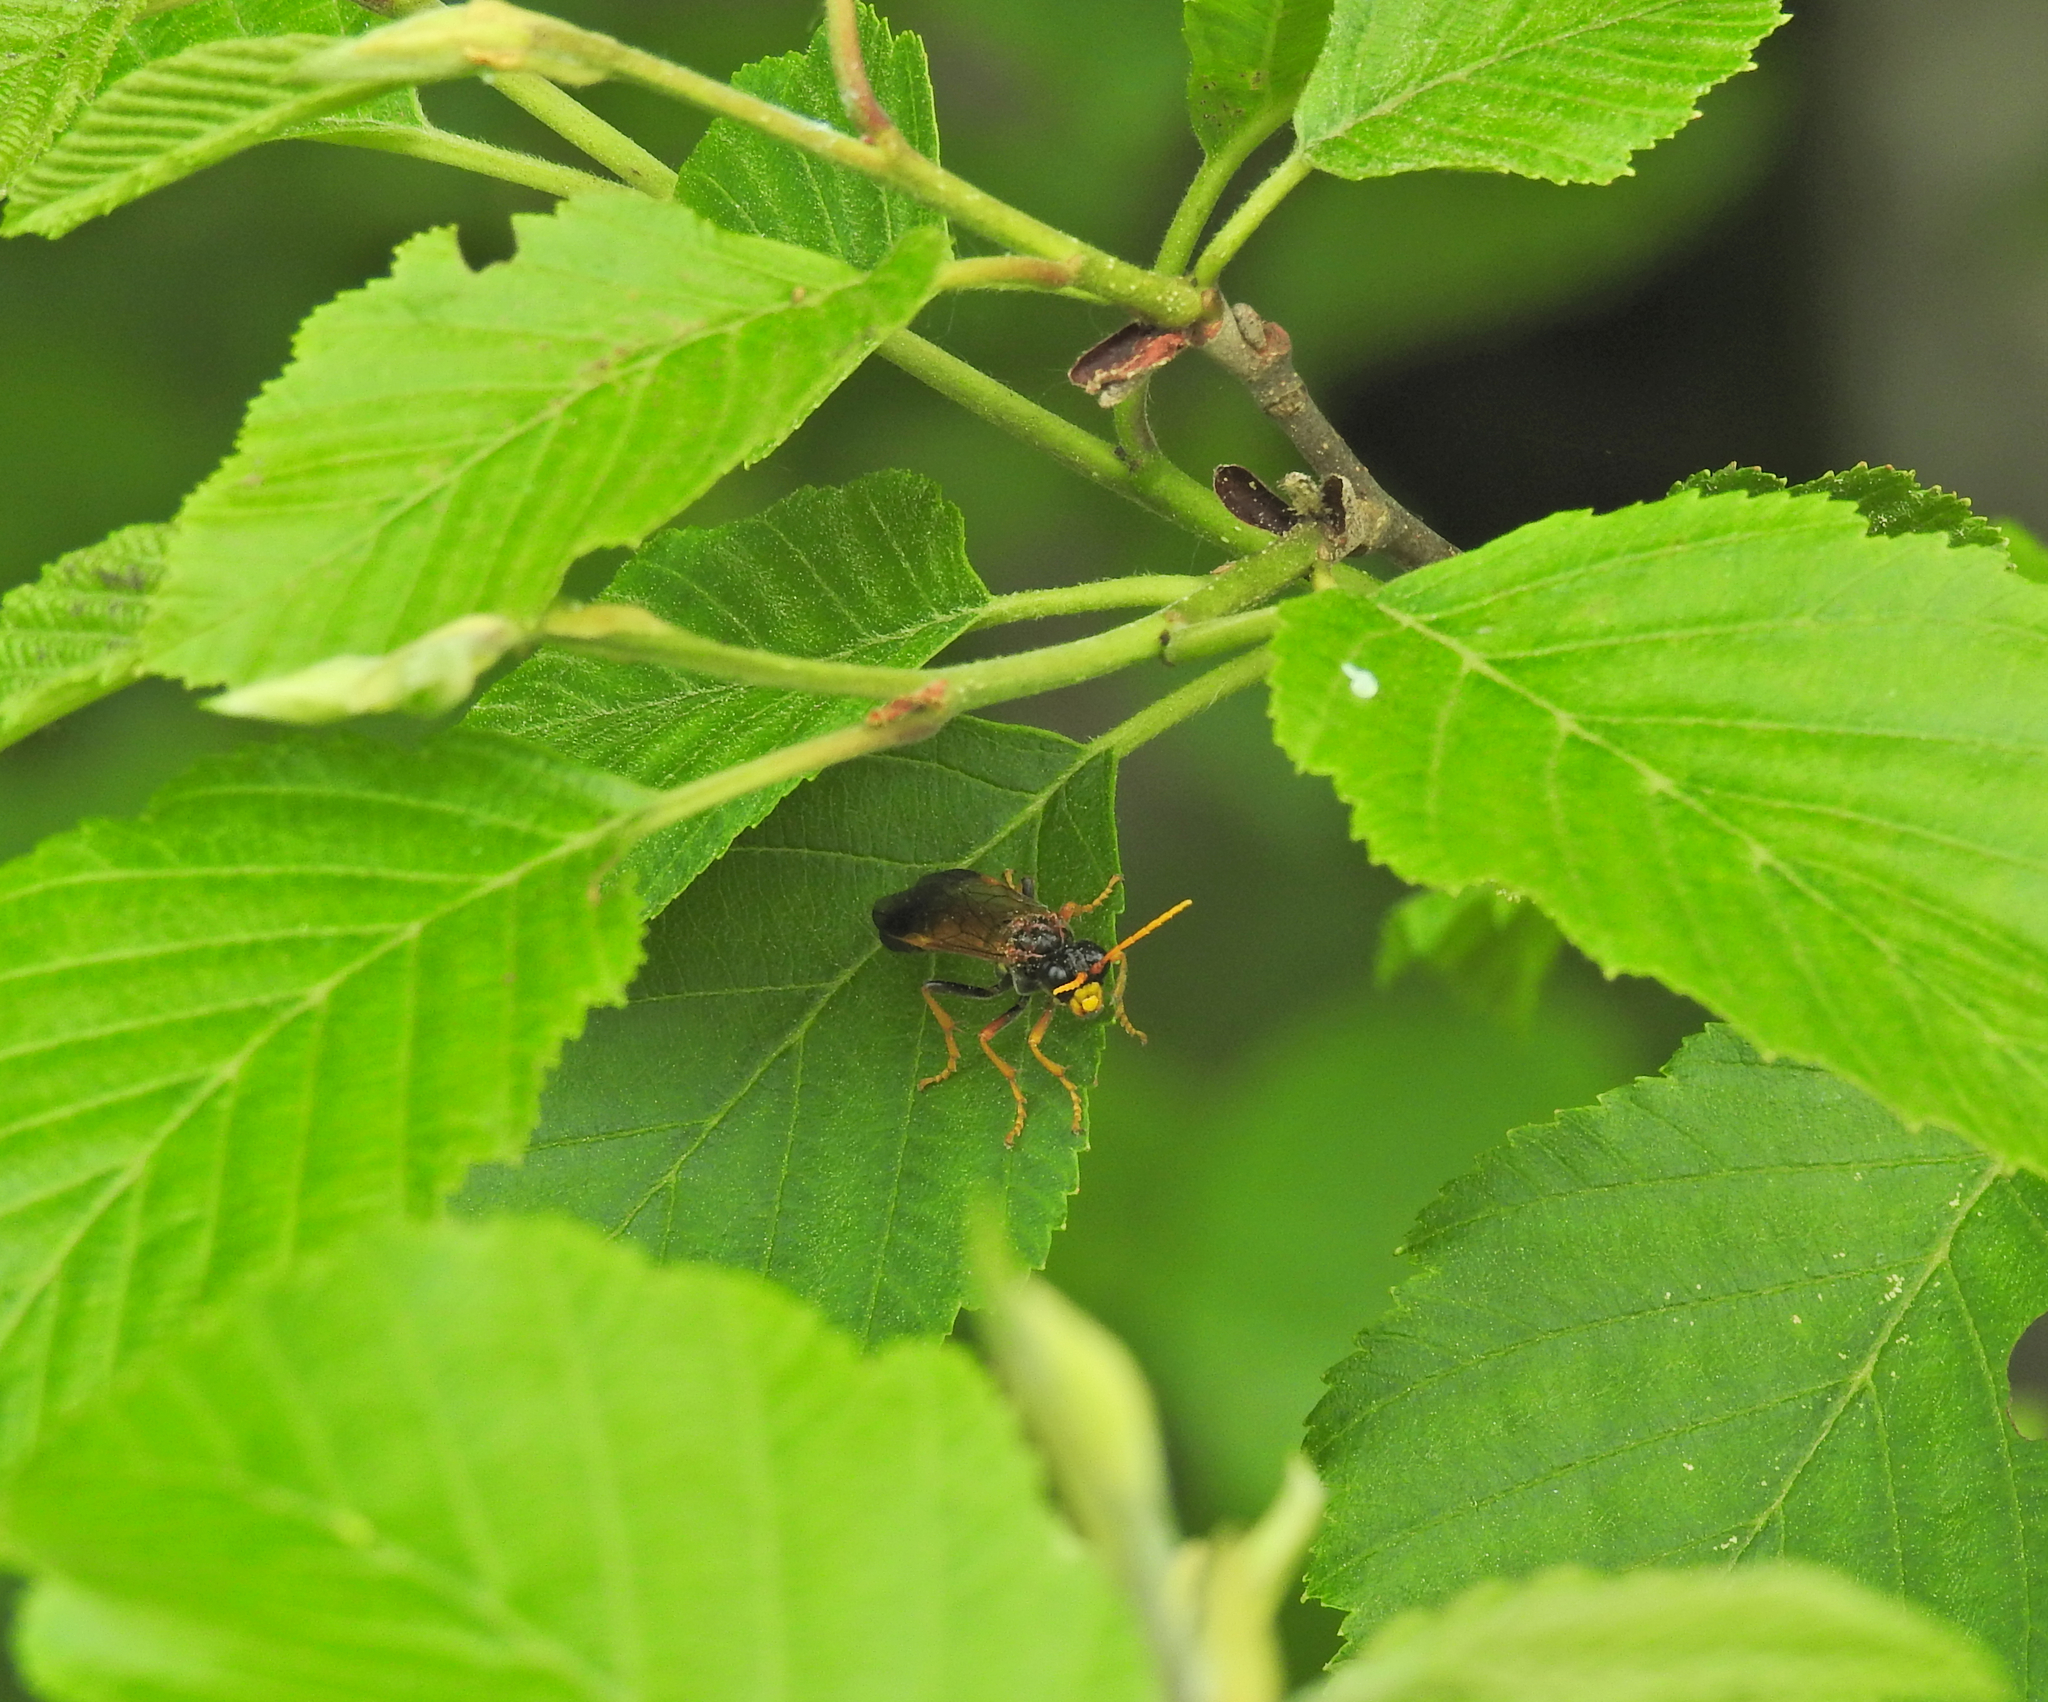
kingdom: Animalia
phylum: Arthropoda
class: Insecta
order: Hymenoptera
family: Tenthredinidae
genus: Tenthredo
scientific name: Tenthredo campestris
